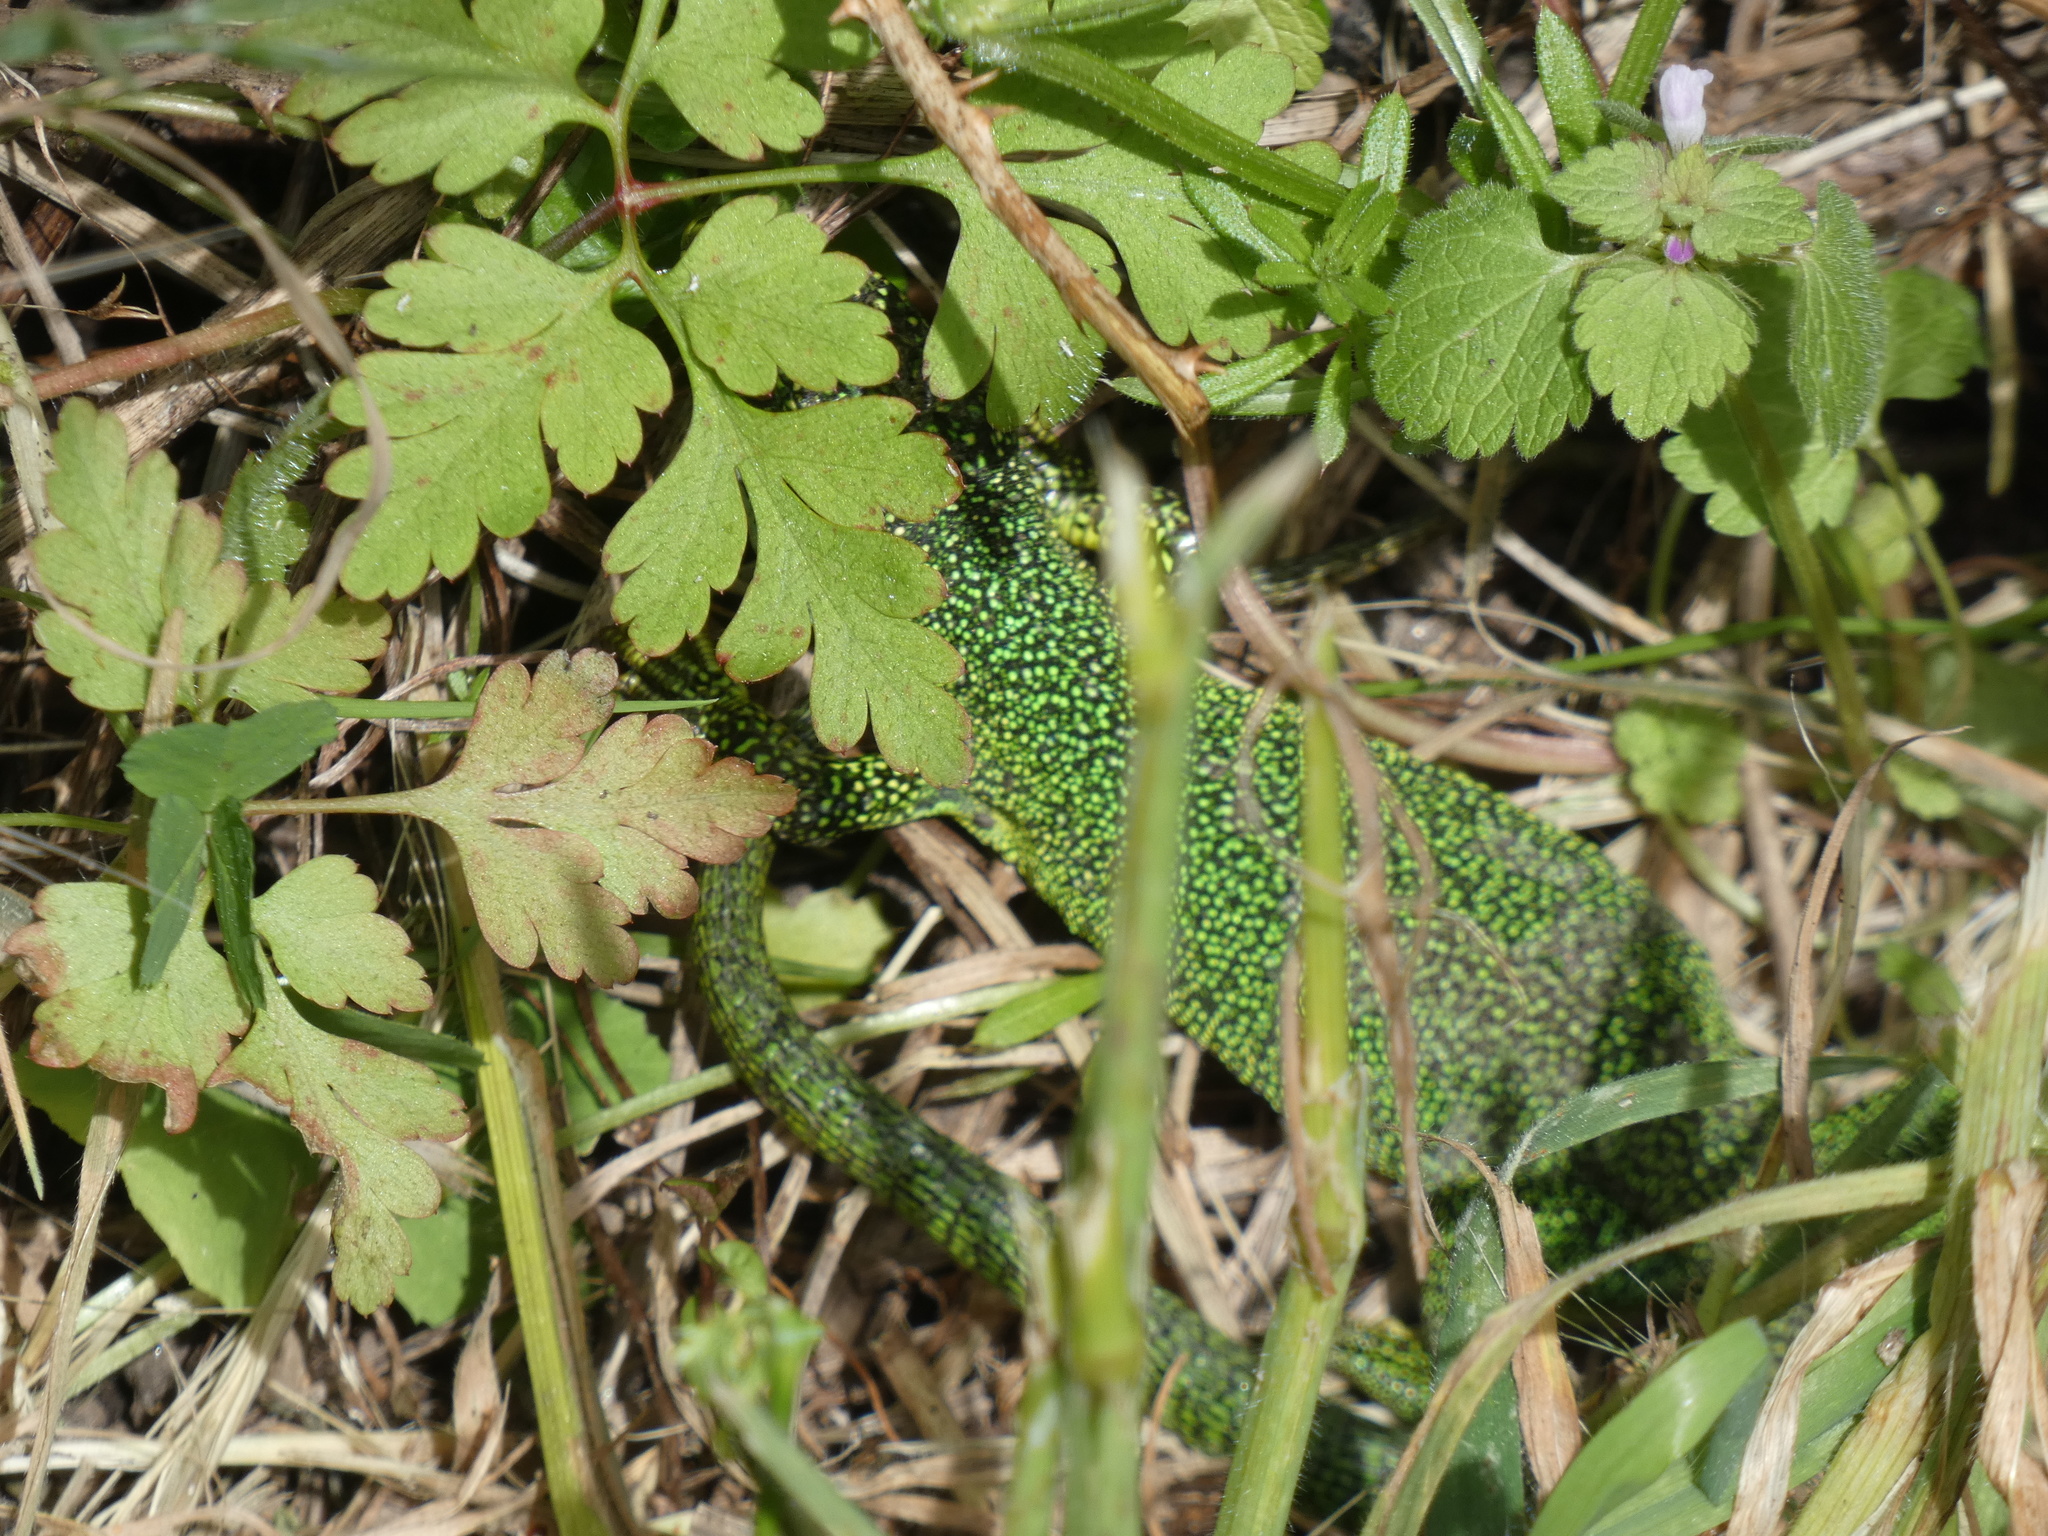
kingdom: Animalia
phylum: Chordata
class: Squamata
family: Lacertidae
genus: Lacerta
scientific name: Lacerta bilineata
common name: Western green lizard
